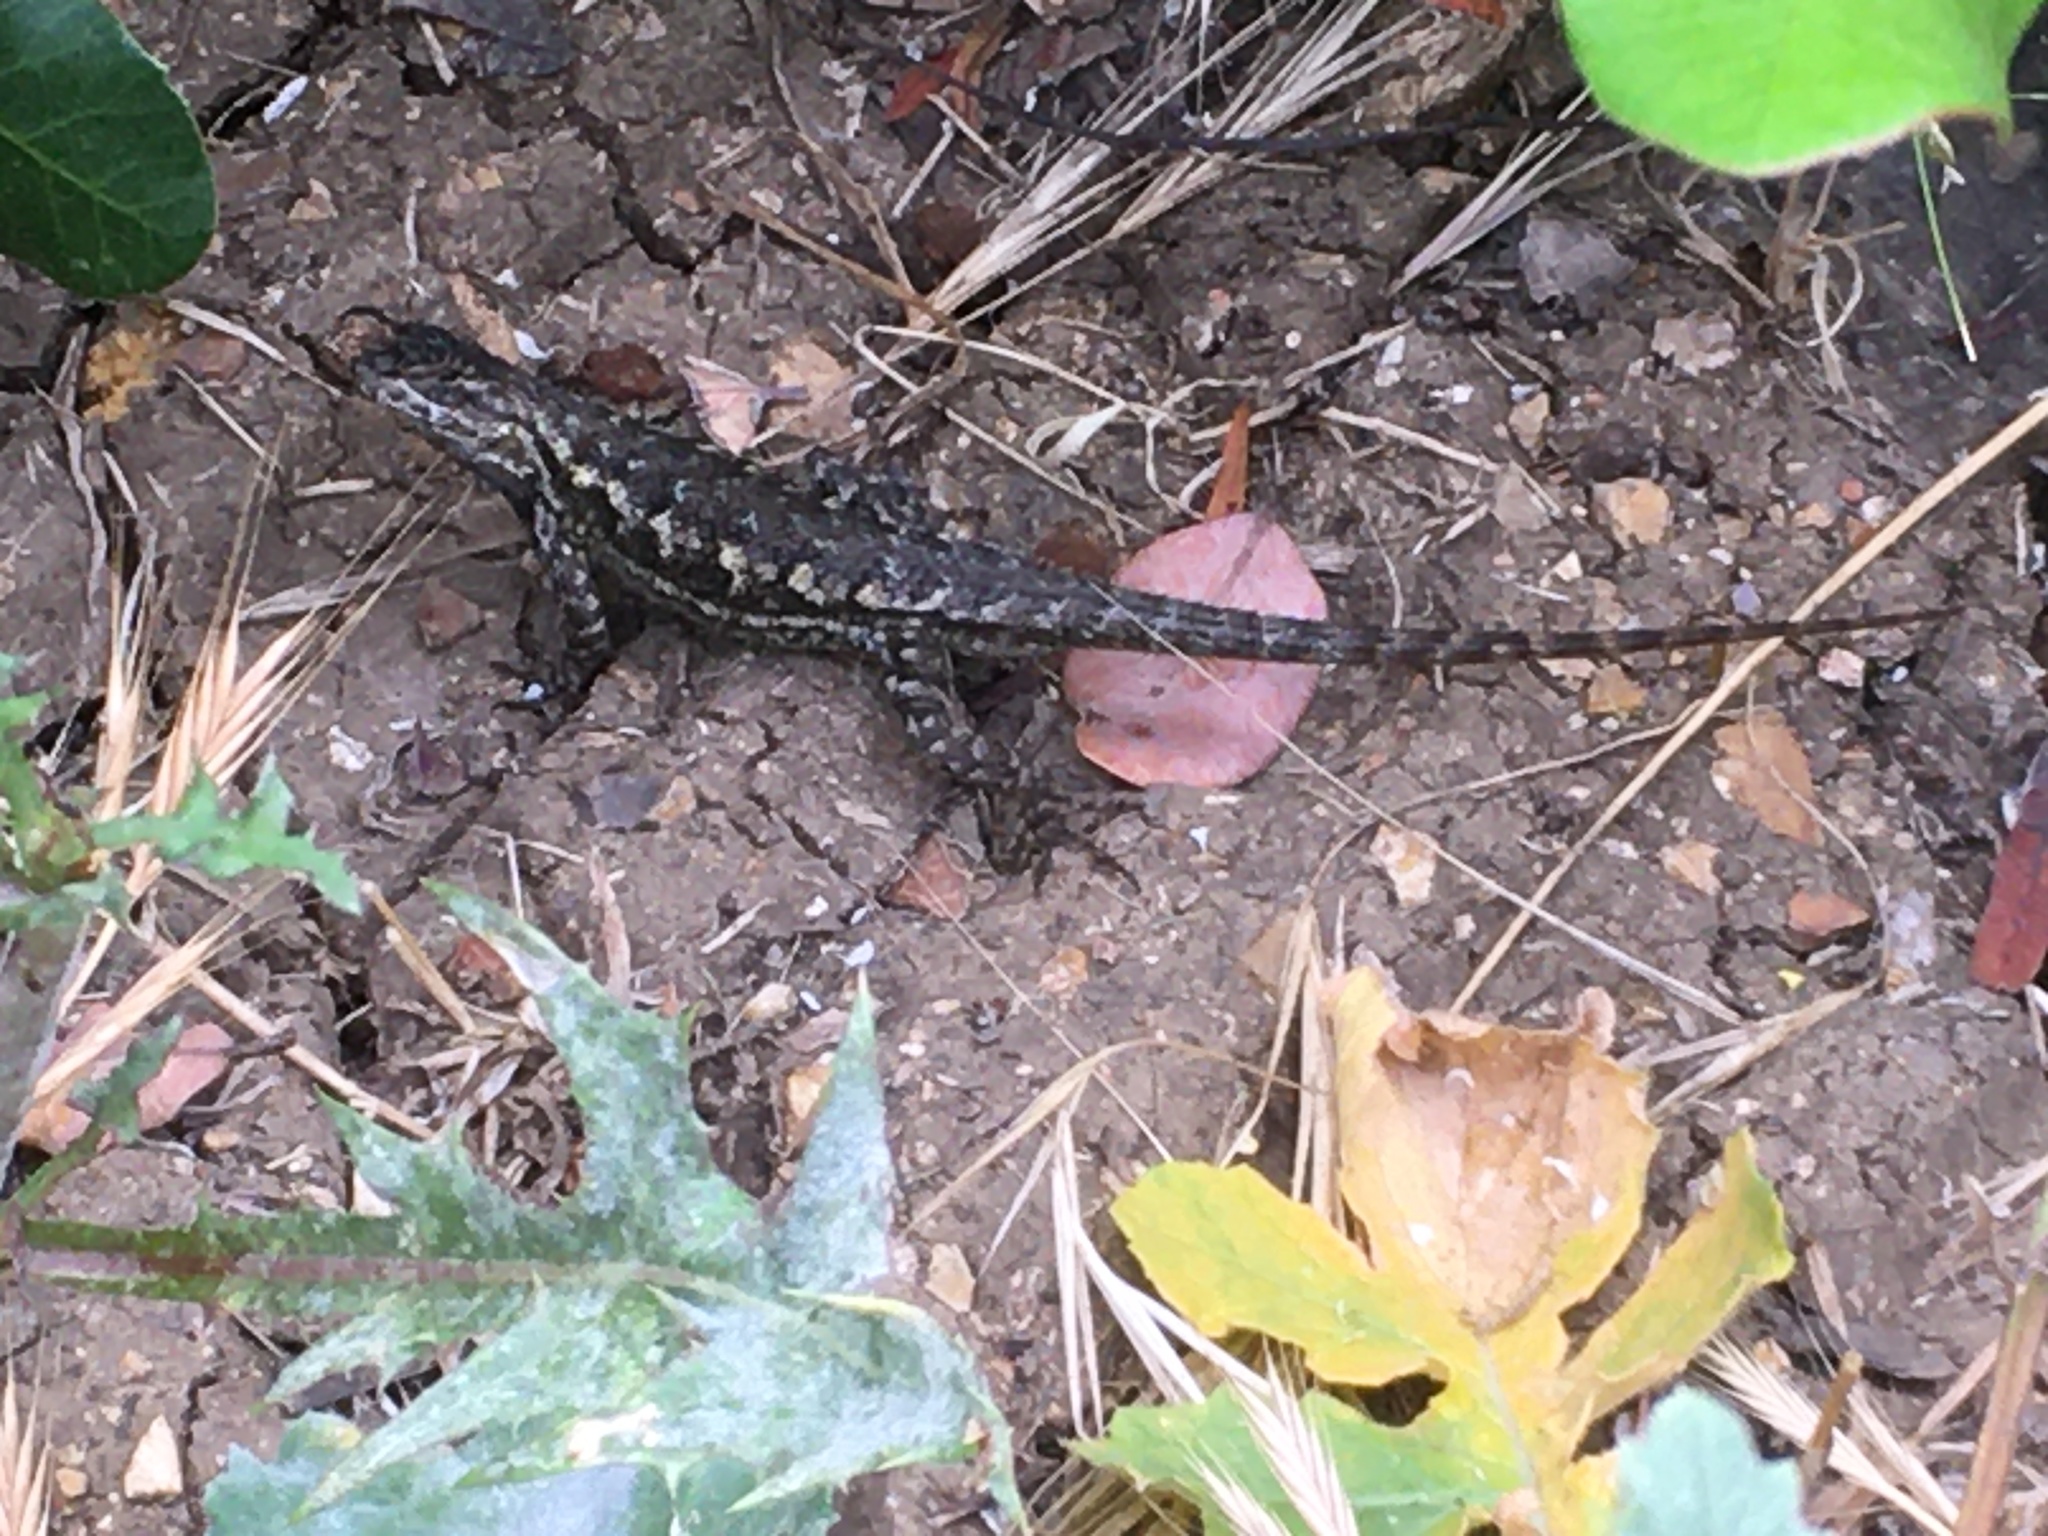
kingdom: Animalia
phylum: Chordata
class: Squamata
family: Phrynosomatidae
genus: Sceloporus
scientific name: Sceloporus occidentalis
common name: Western fence lizard
